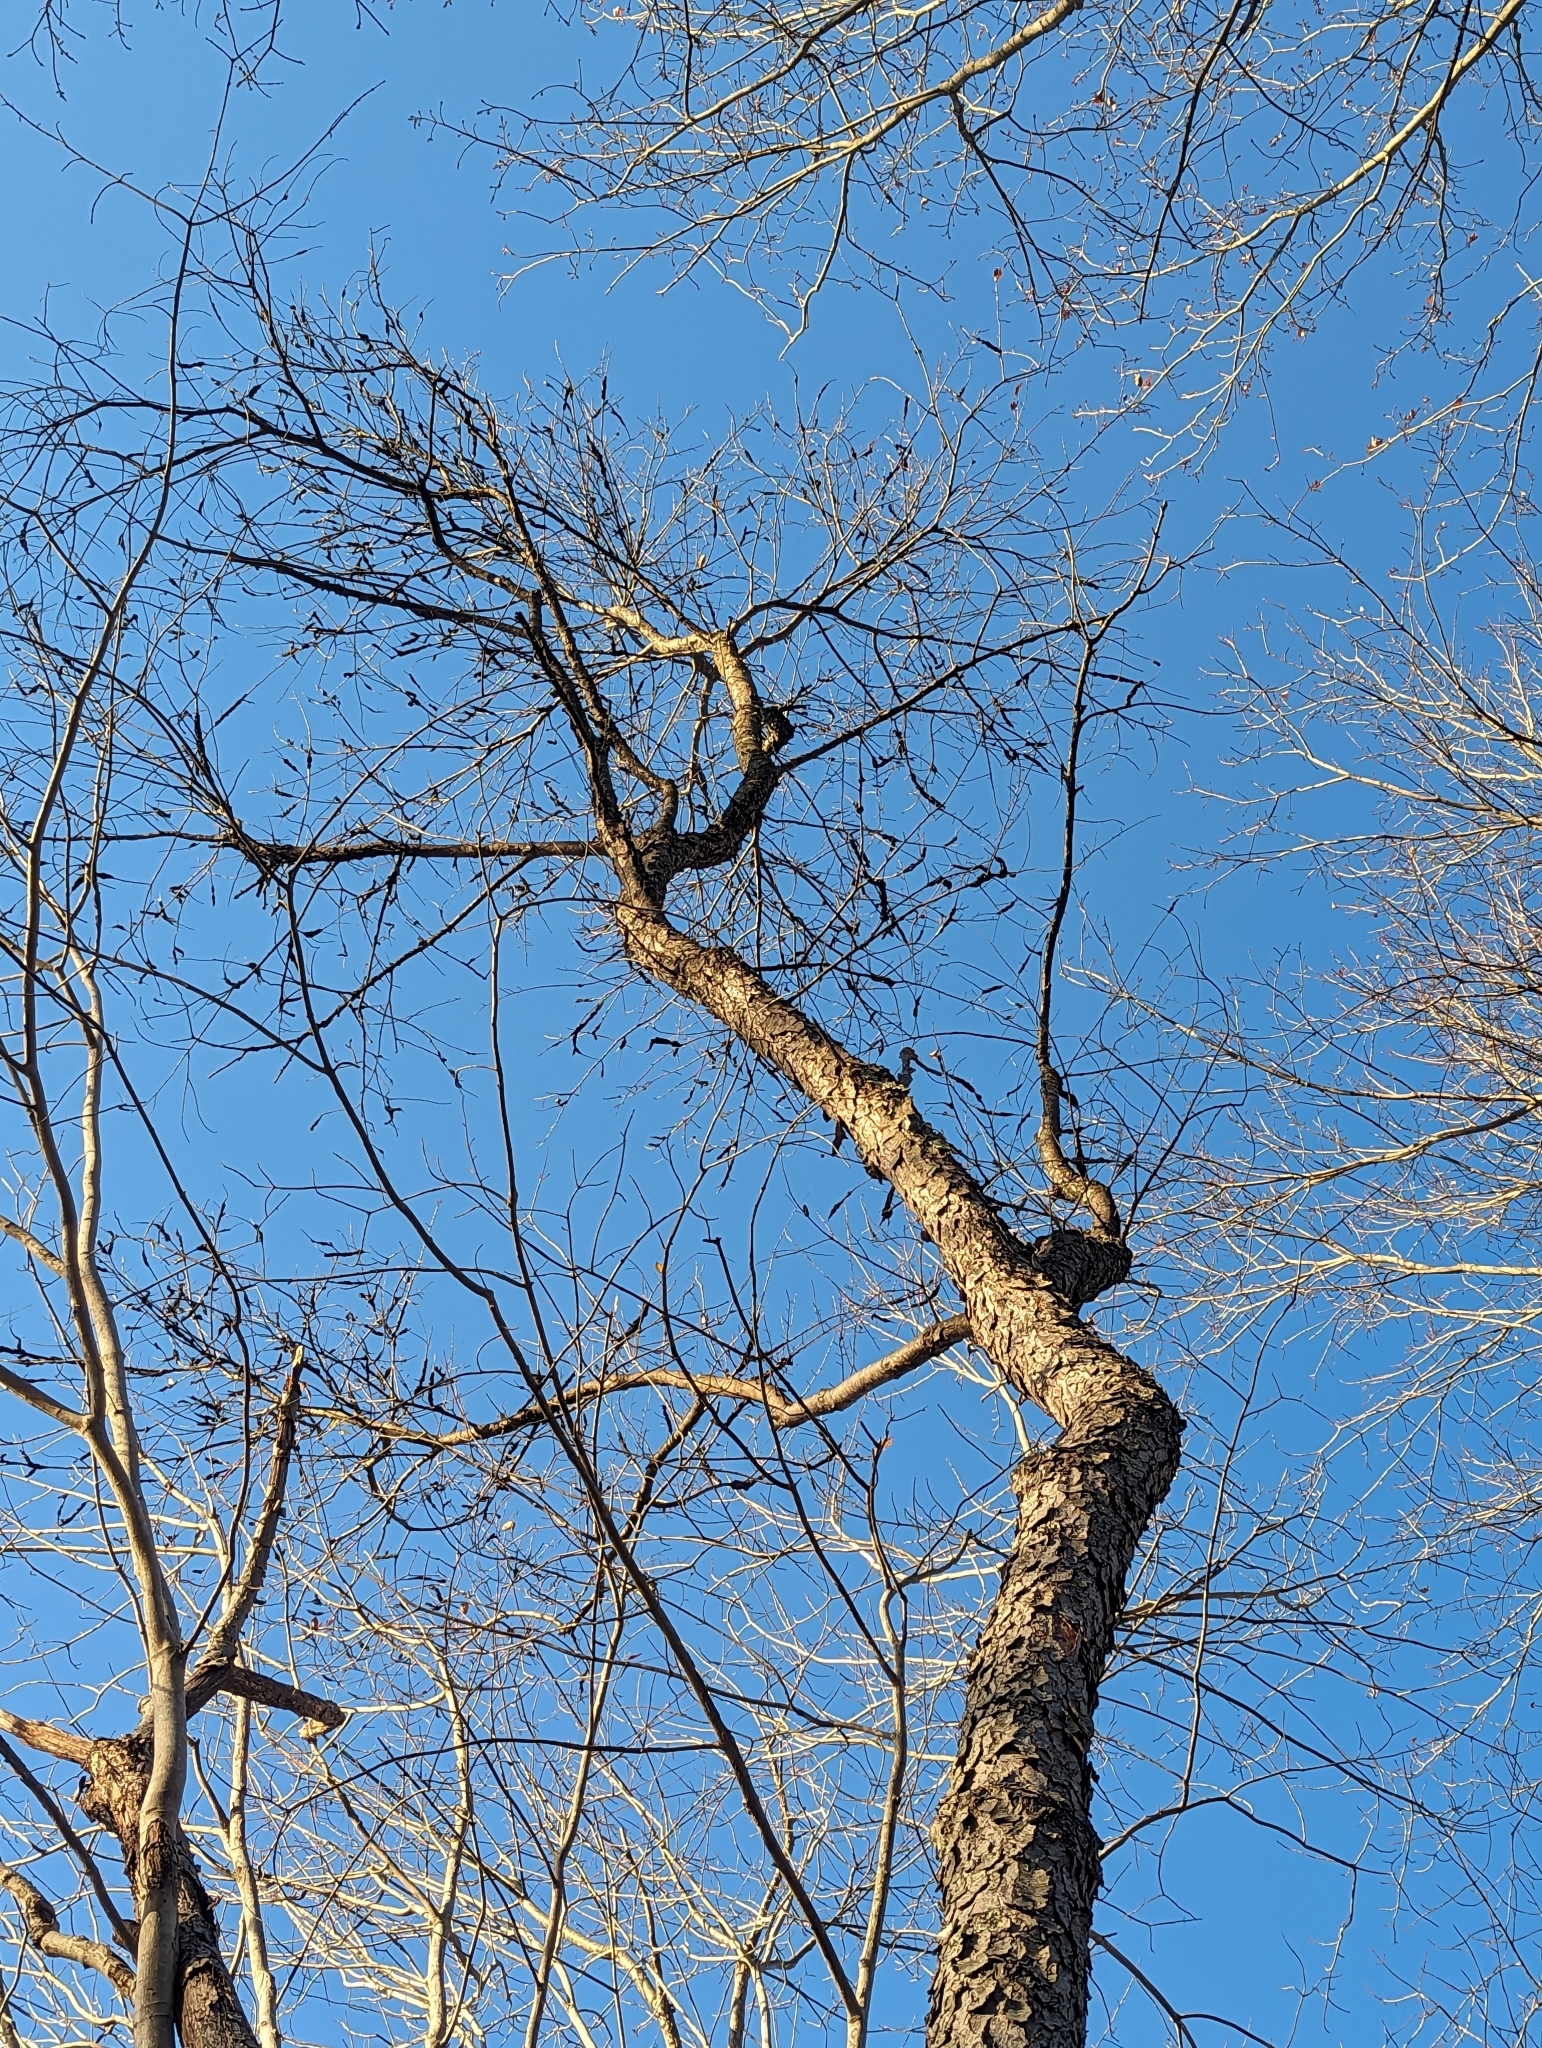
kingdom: Fungi
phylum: Ascomycota
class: Dothideomycetes
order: Venturiales
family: Venturiaceae
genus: Apiosporina
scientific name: Apiosporina morbosa
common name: Black knot
